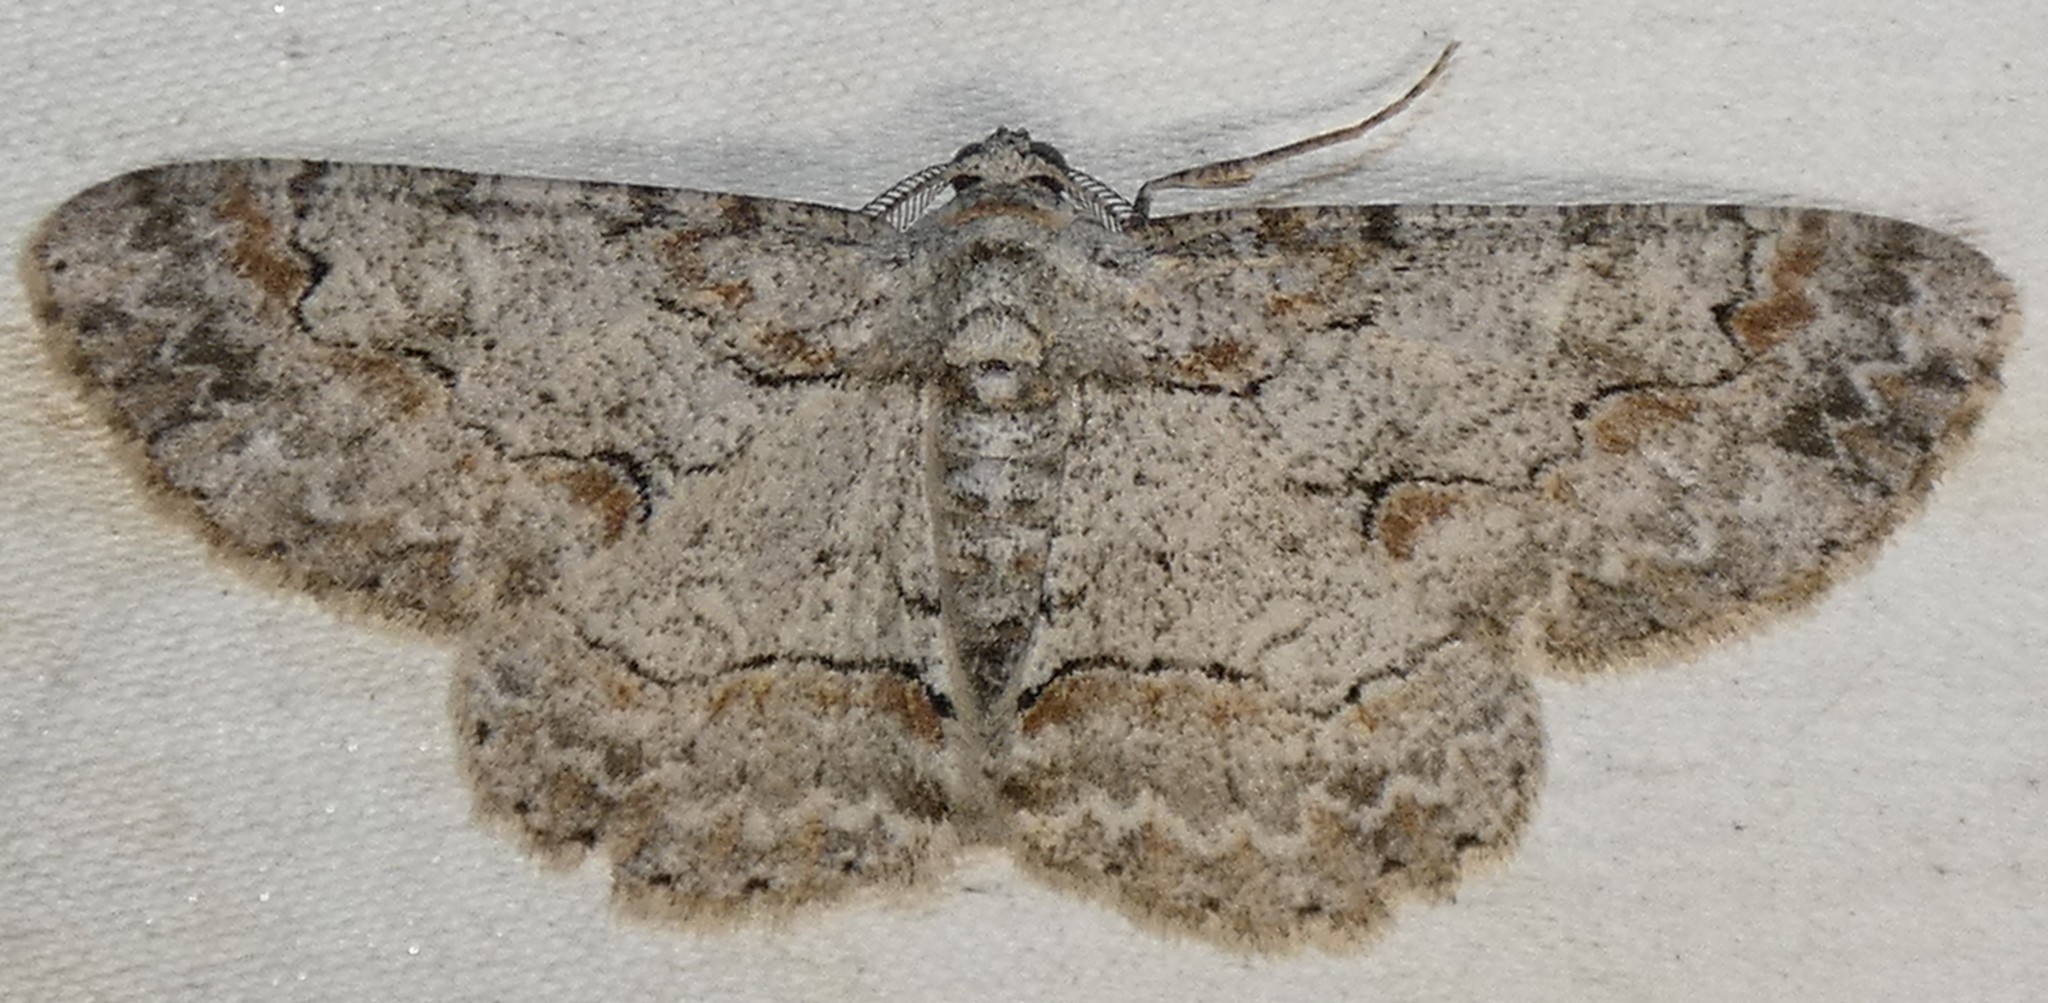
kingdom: Animalia
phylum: Arthropoda
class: Insecta
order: Lepidoptera
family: Geometridae
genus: Iridopsis
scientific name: Iridopsis defectaria
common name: Brown-shaded gray
